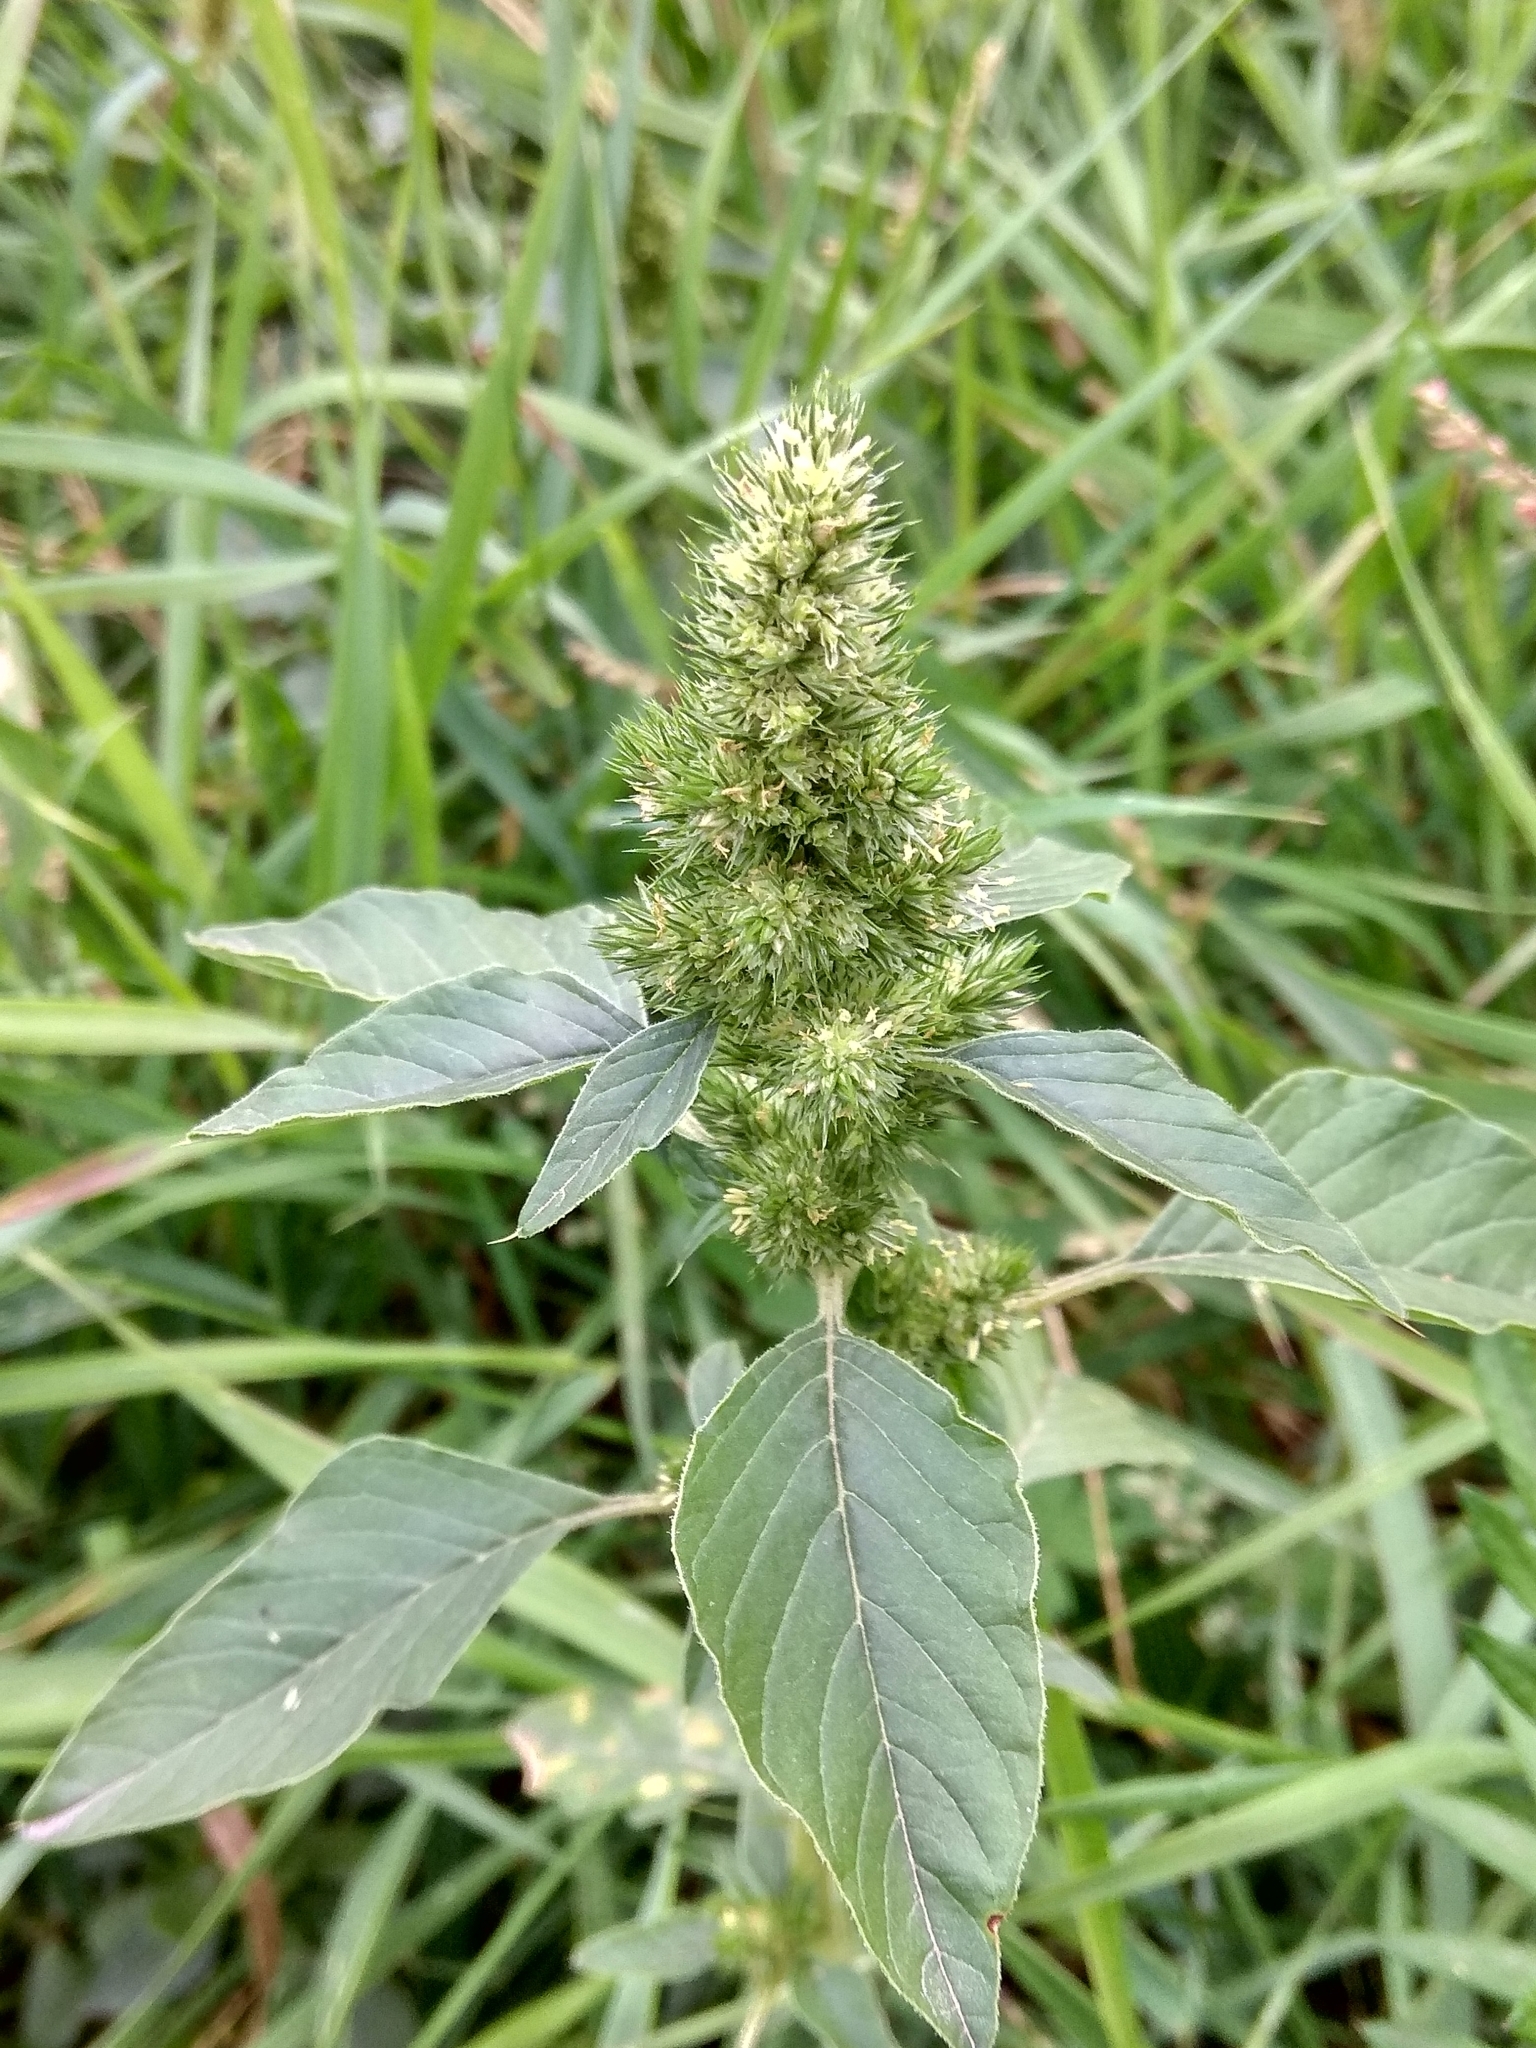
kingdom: Plantae
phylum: Tracheophyta
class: Magnoliopsida
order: Caryophyllales
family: Amaranthaceae
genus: Amaranthus
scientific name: Amaranthus retroflexus
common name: Redroot amaranth
